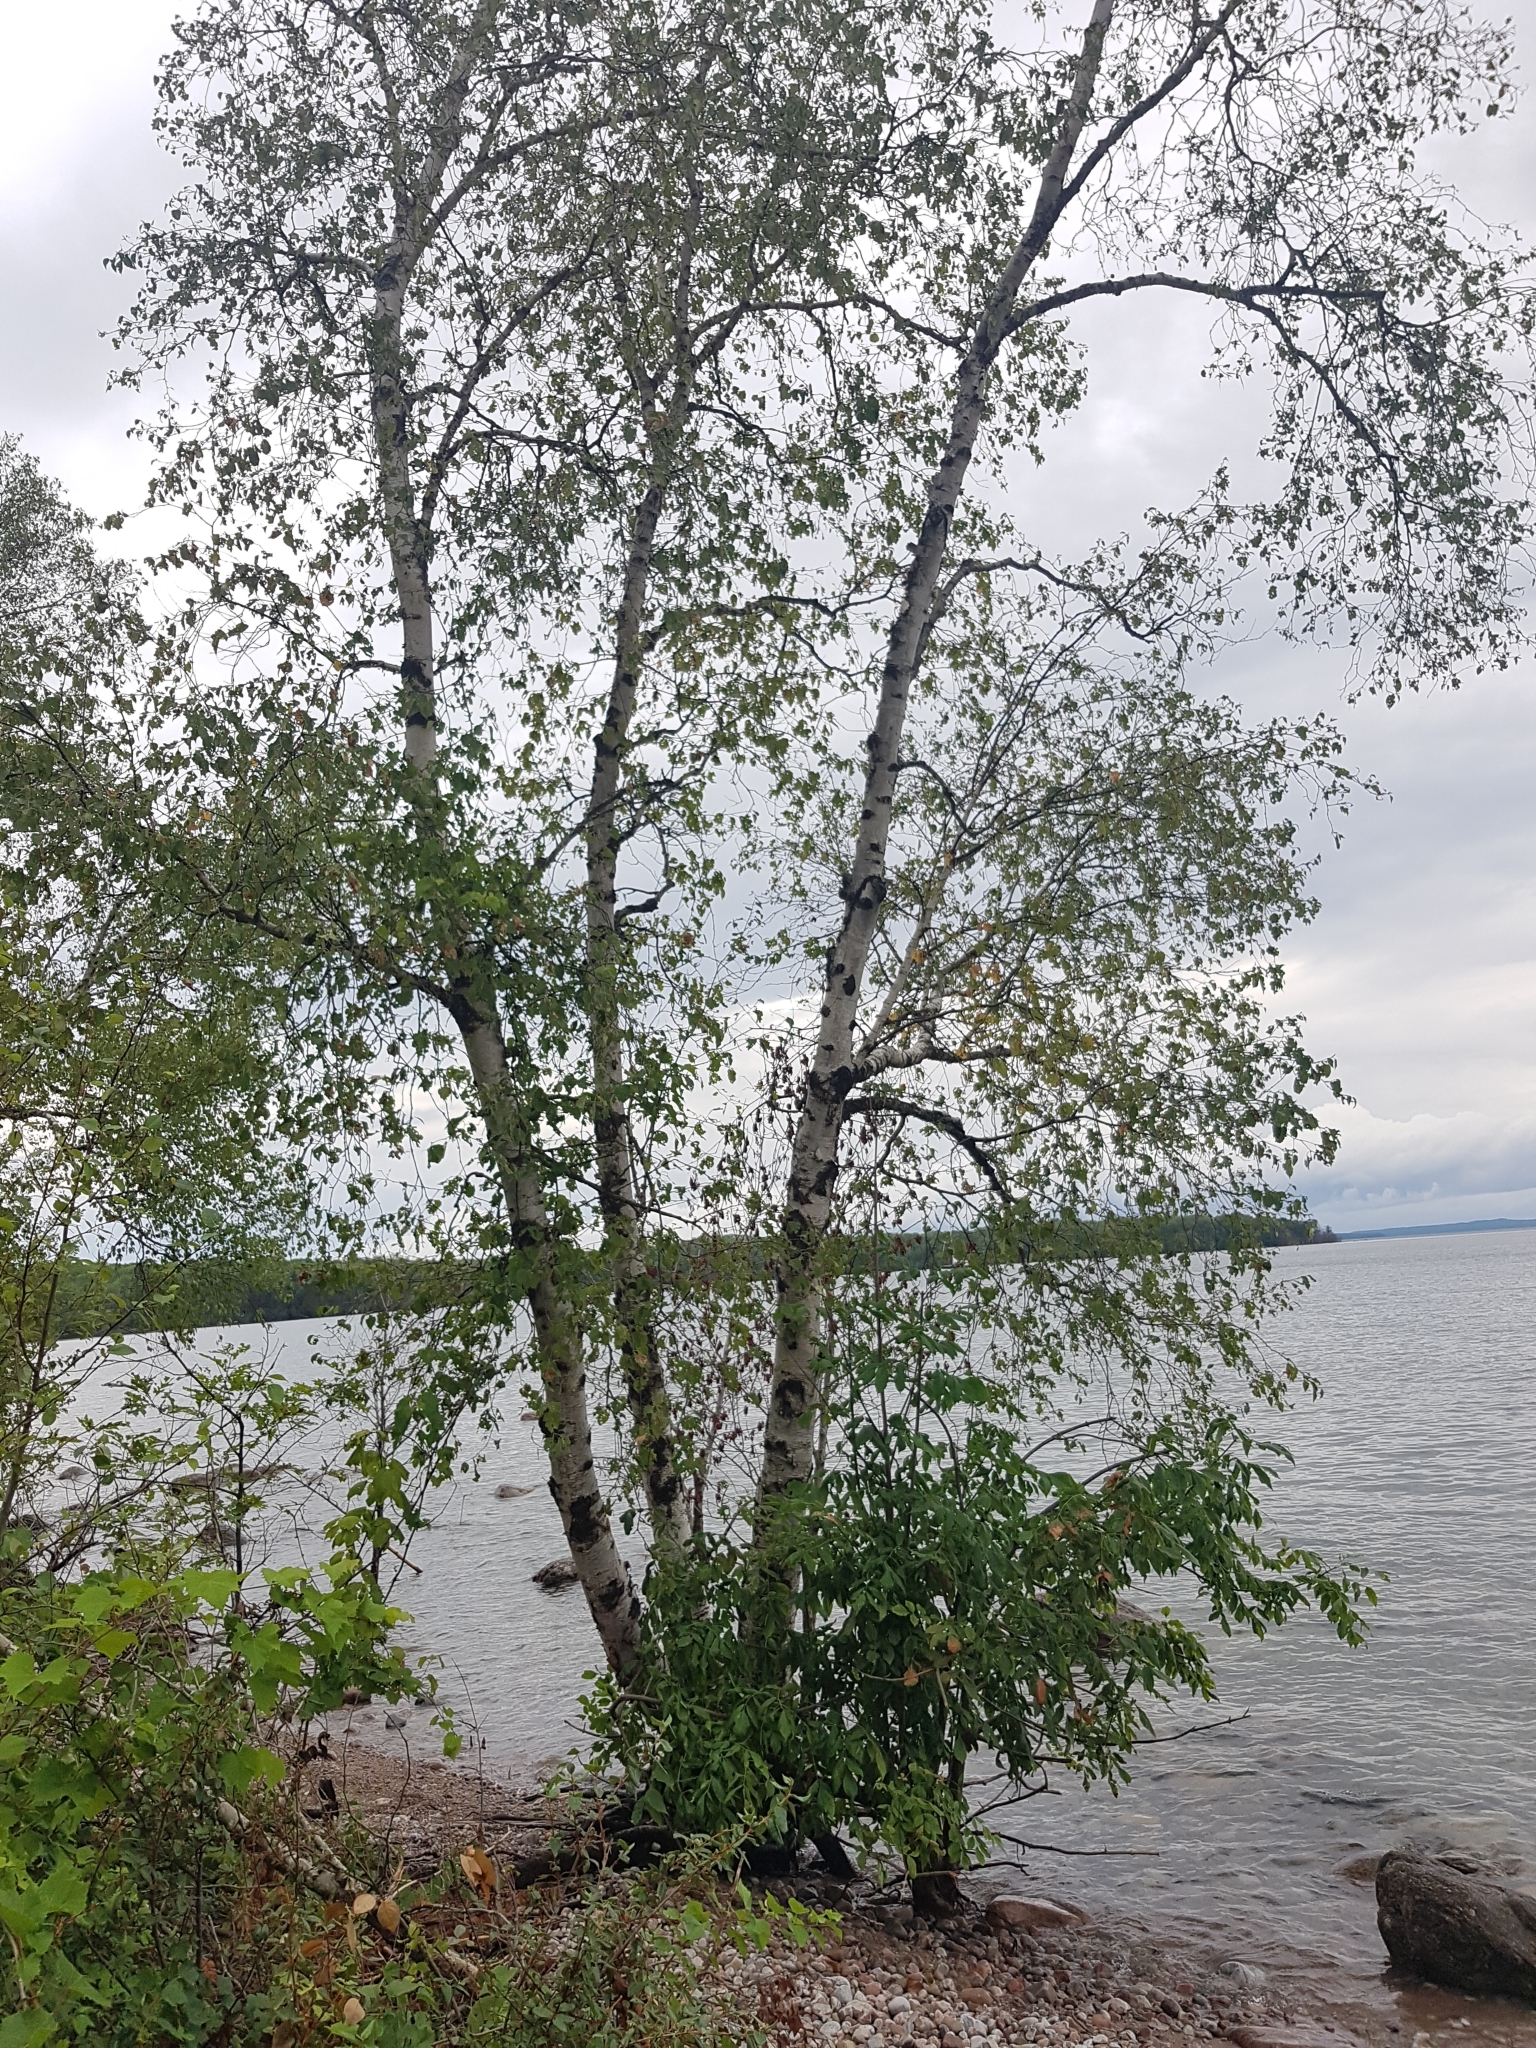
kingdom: Plantae
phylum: Tracheophyta
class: Magnoliopsida
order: Fagales
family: Betulaceae
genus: Betula
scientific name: Betula papyrifera
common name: Paper birch
